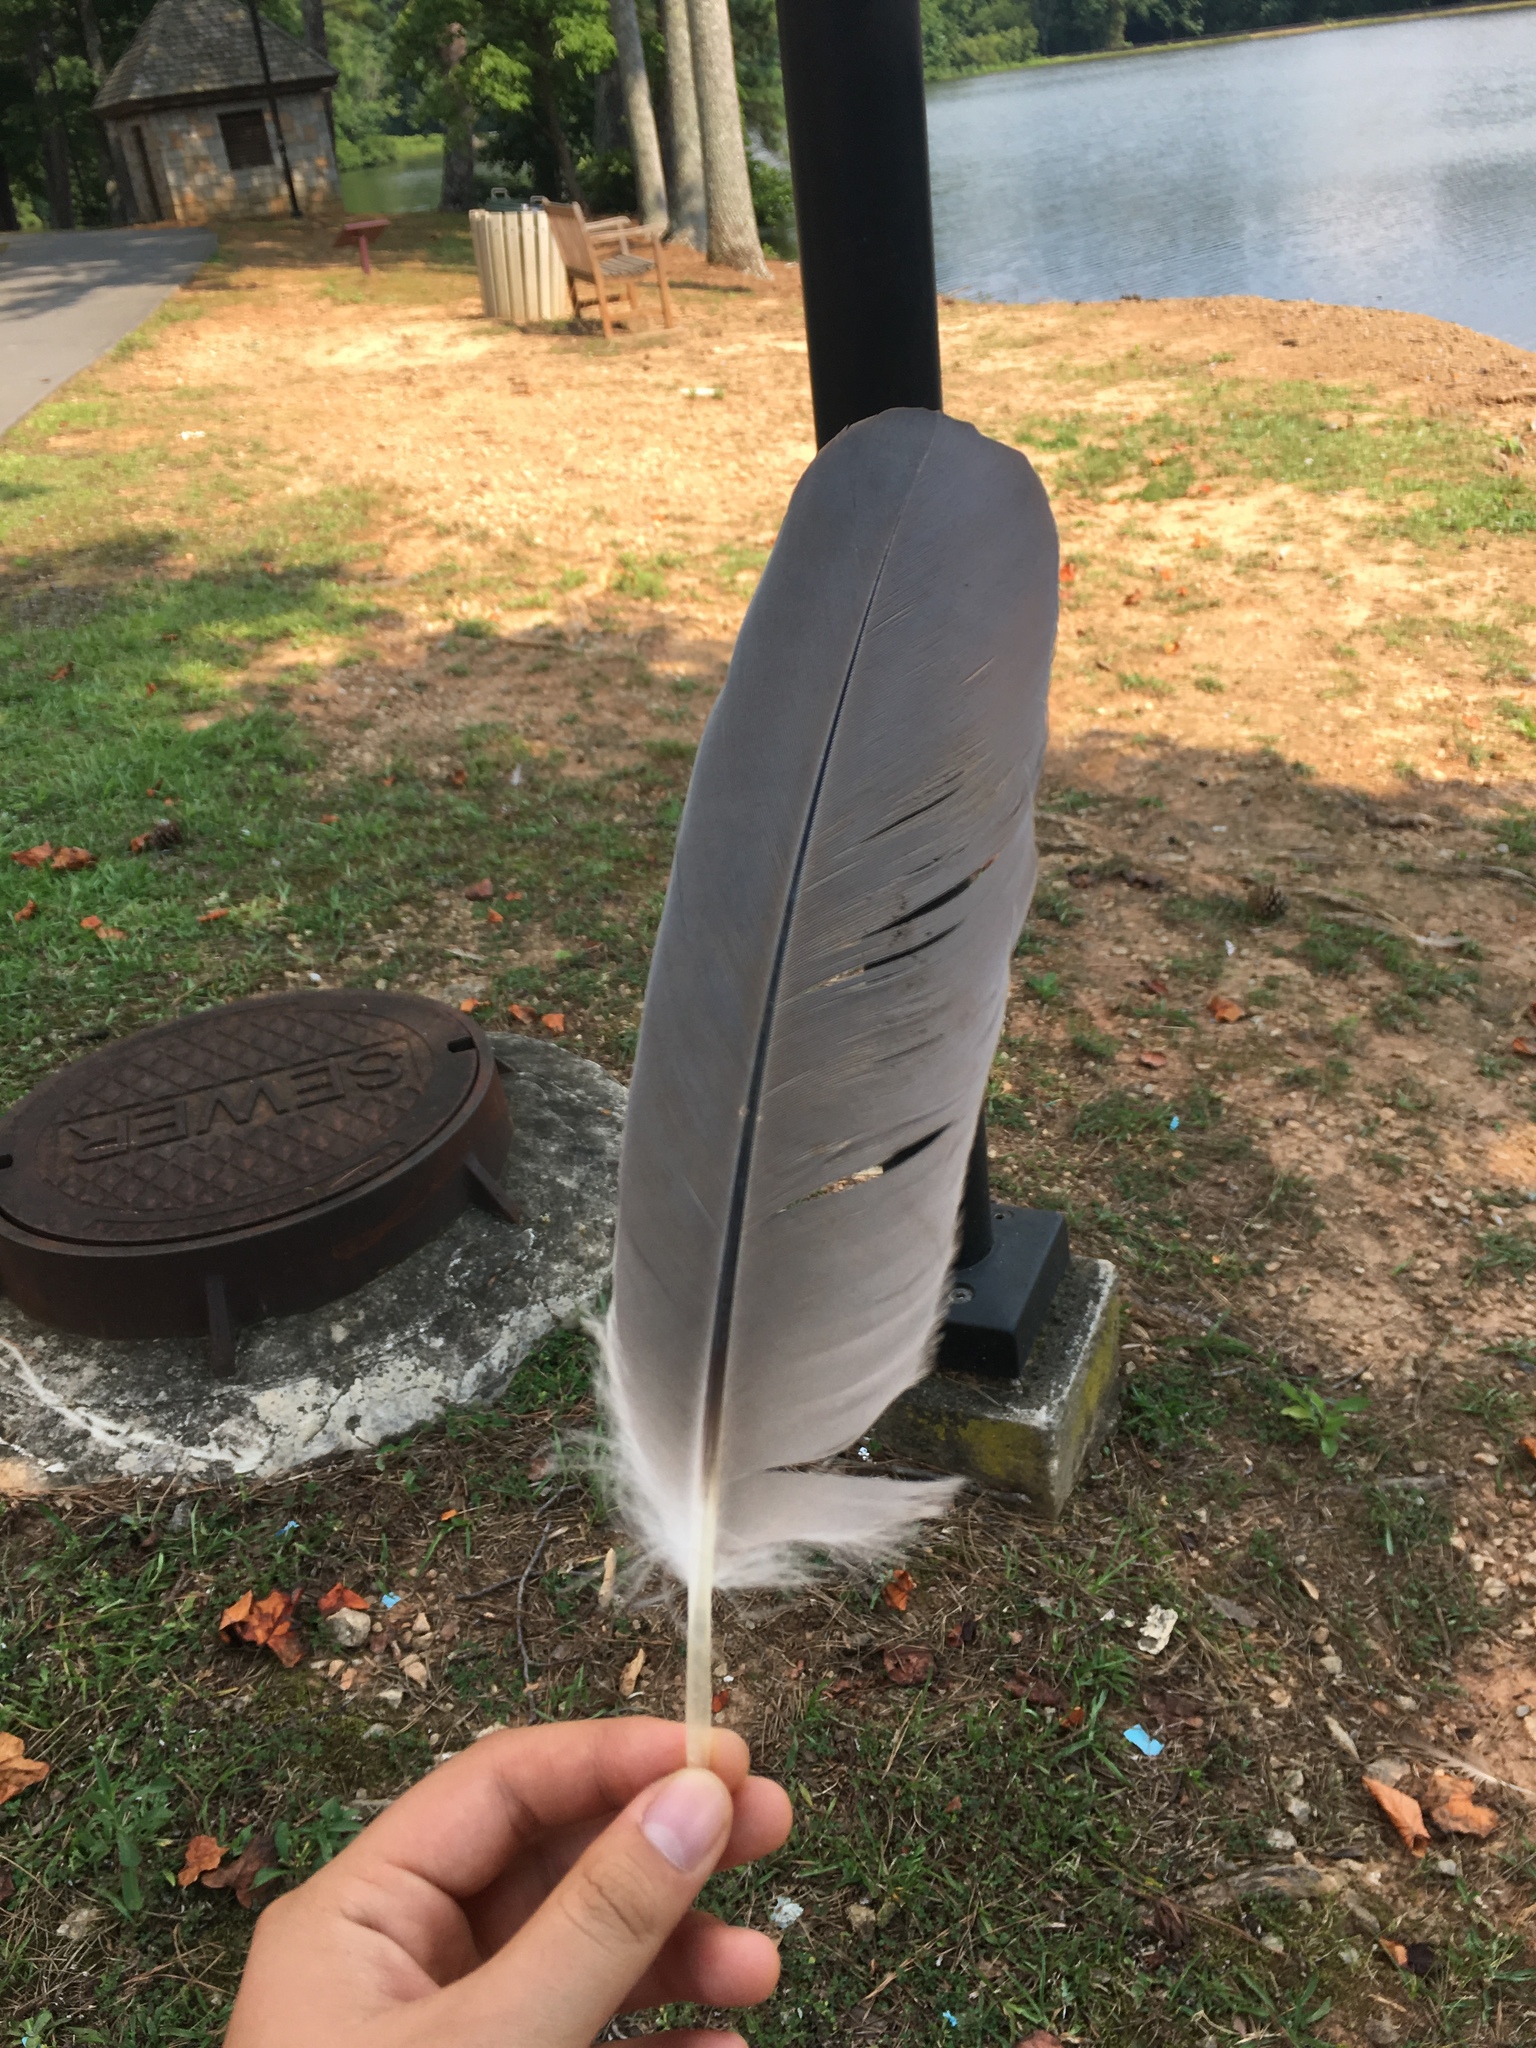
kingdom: Animalia
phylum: Chordata
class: Aves
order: Pelecaniformes
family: Ardeidae
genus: Ardea
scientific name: Ardea herodias
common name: Great blue heron
